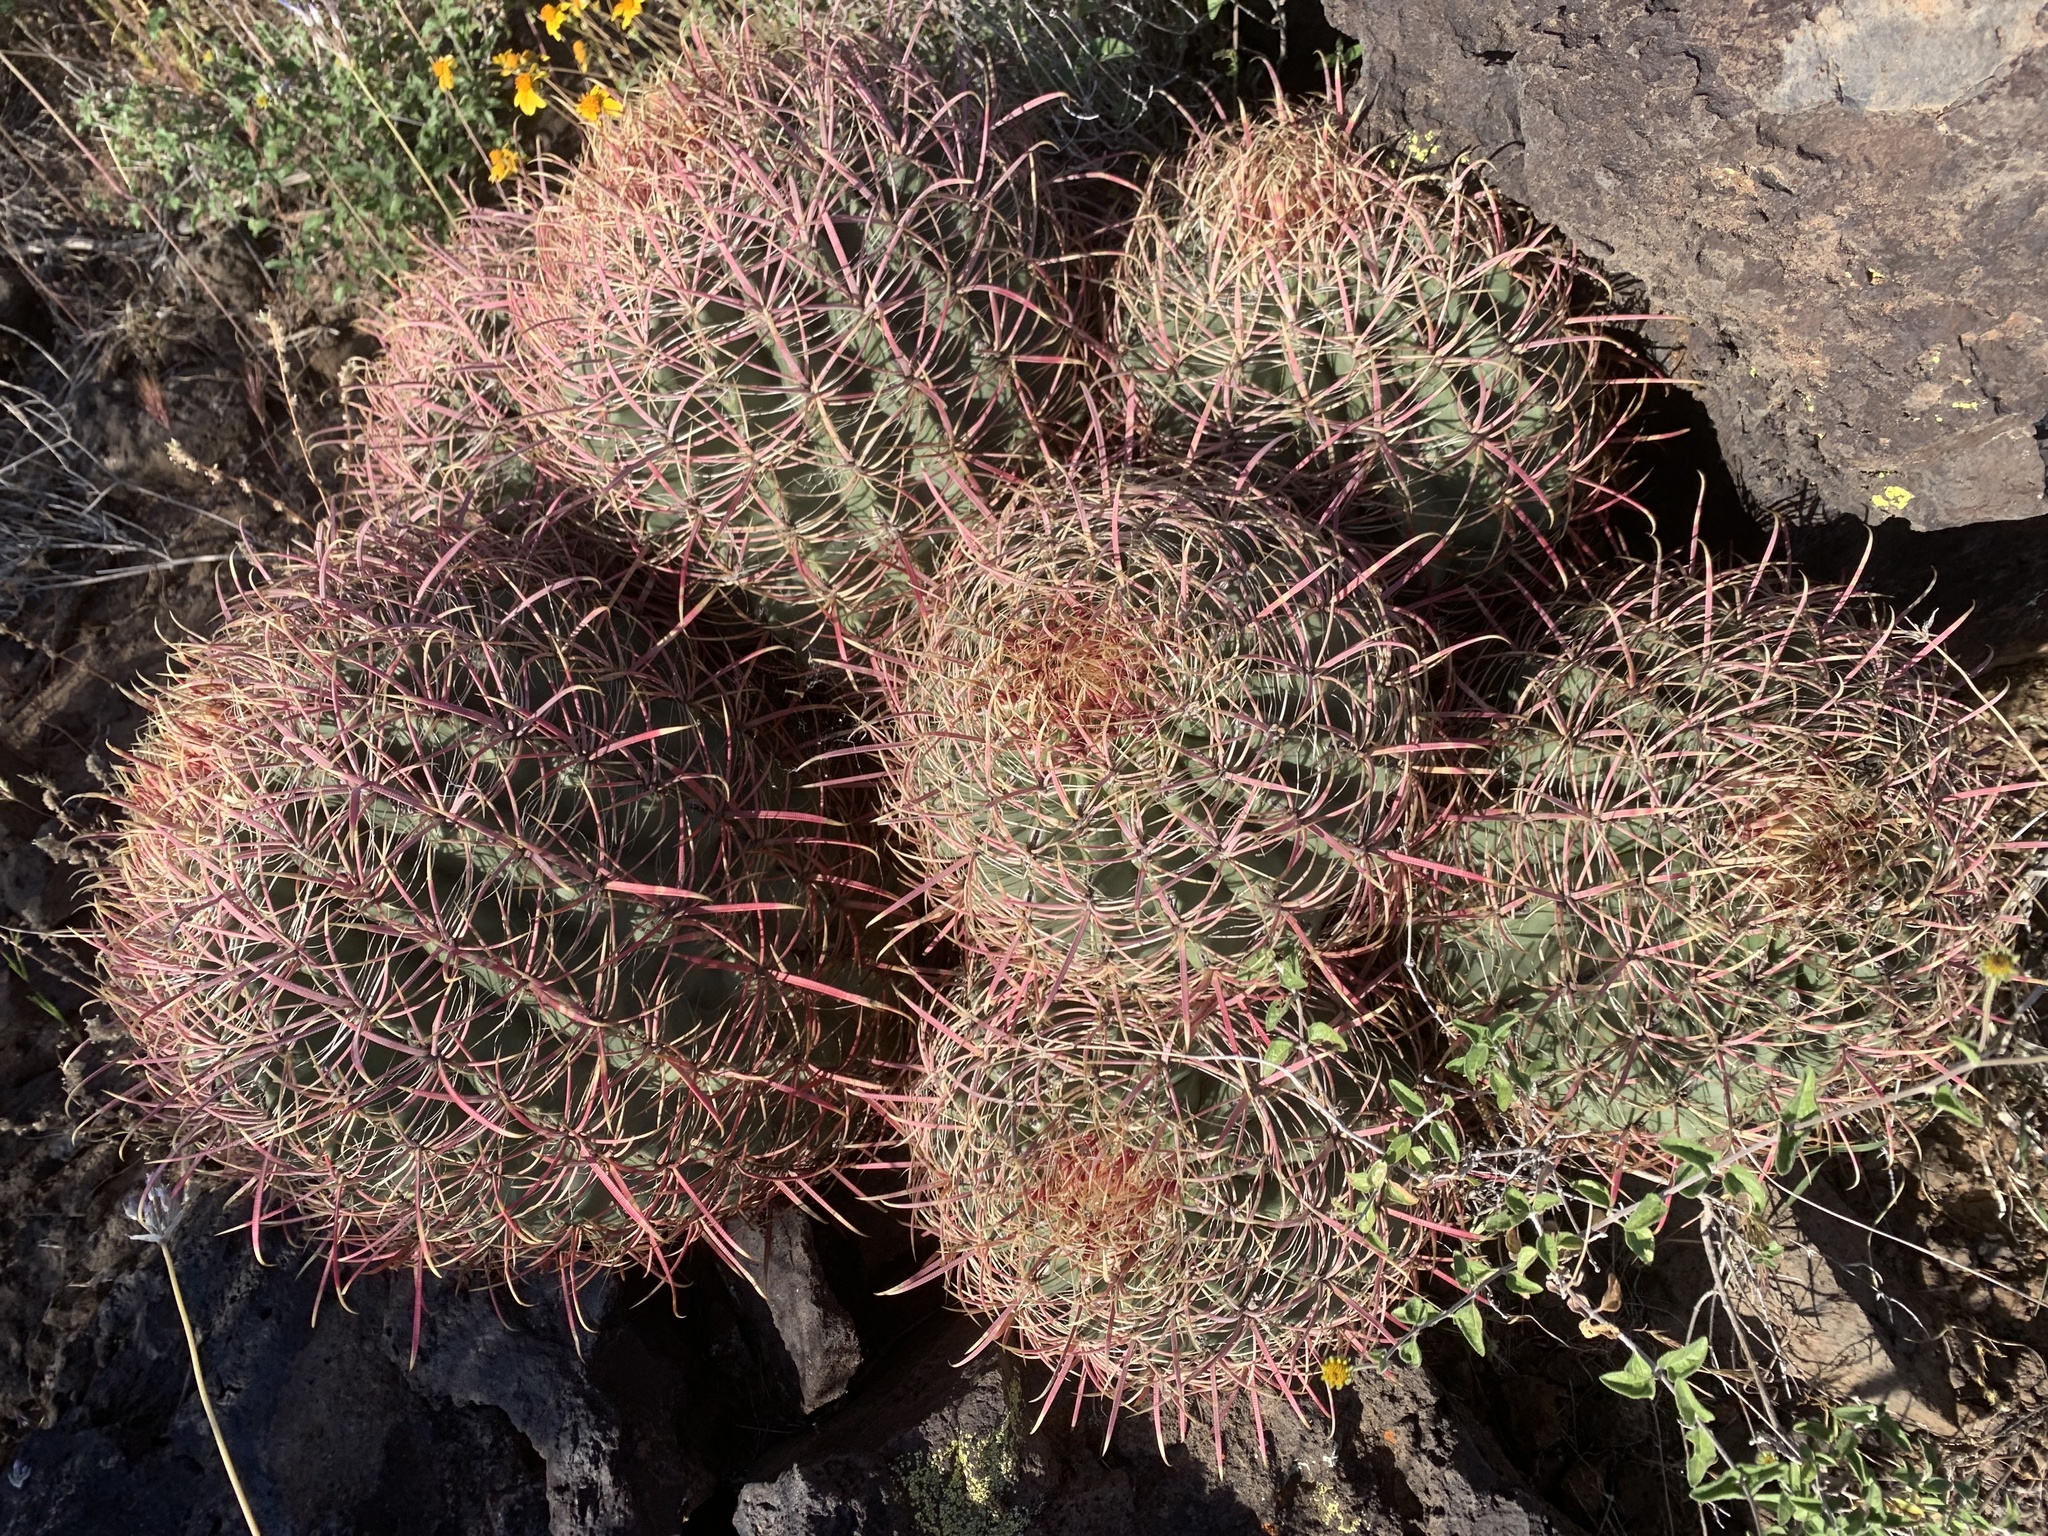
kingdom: Plantae
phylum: Tracheophyta
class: Magnoliopsida
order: Caryophyllales
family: Cactaceae
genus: Ferocactus
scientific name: Ferocactus cylindraceus
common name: California barrel cactus
